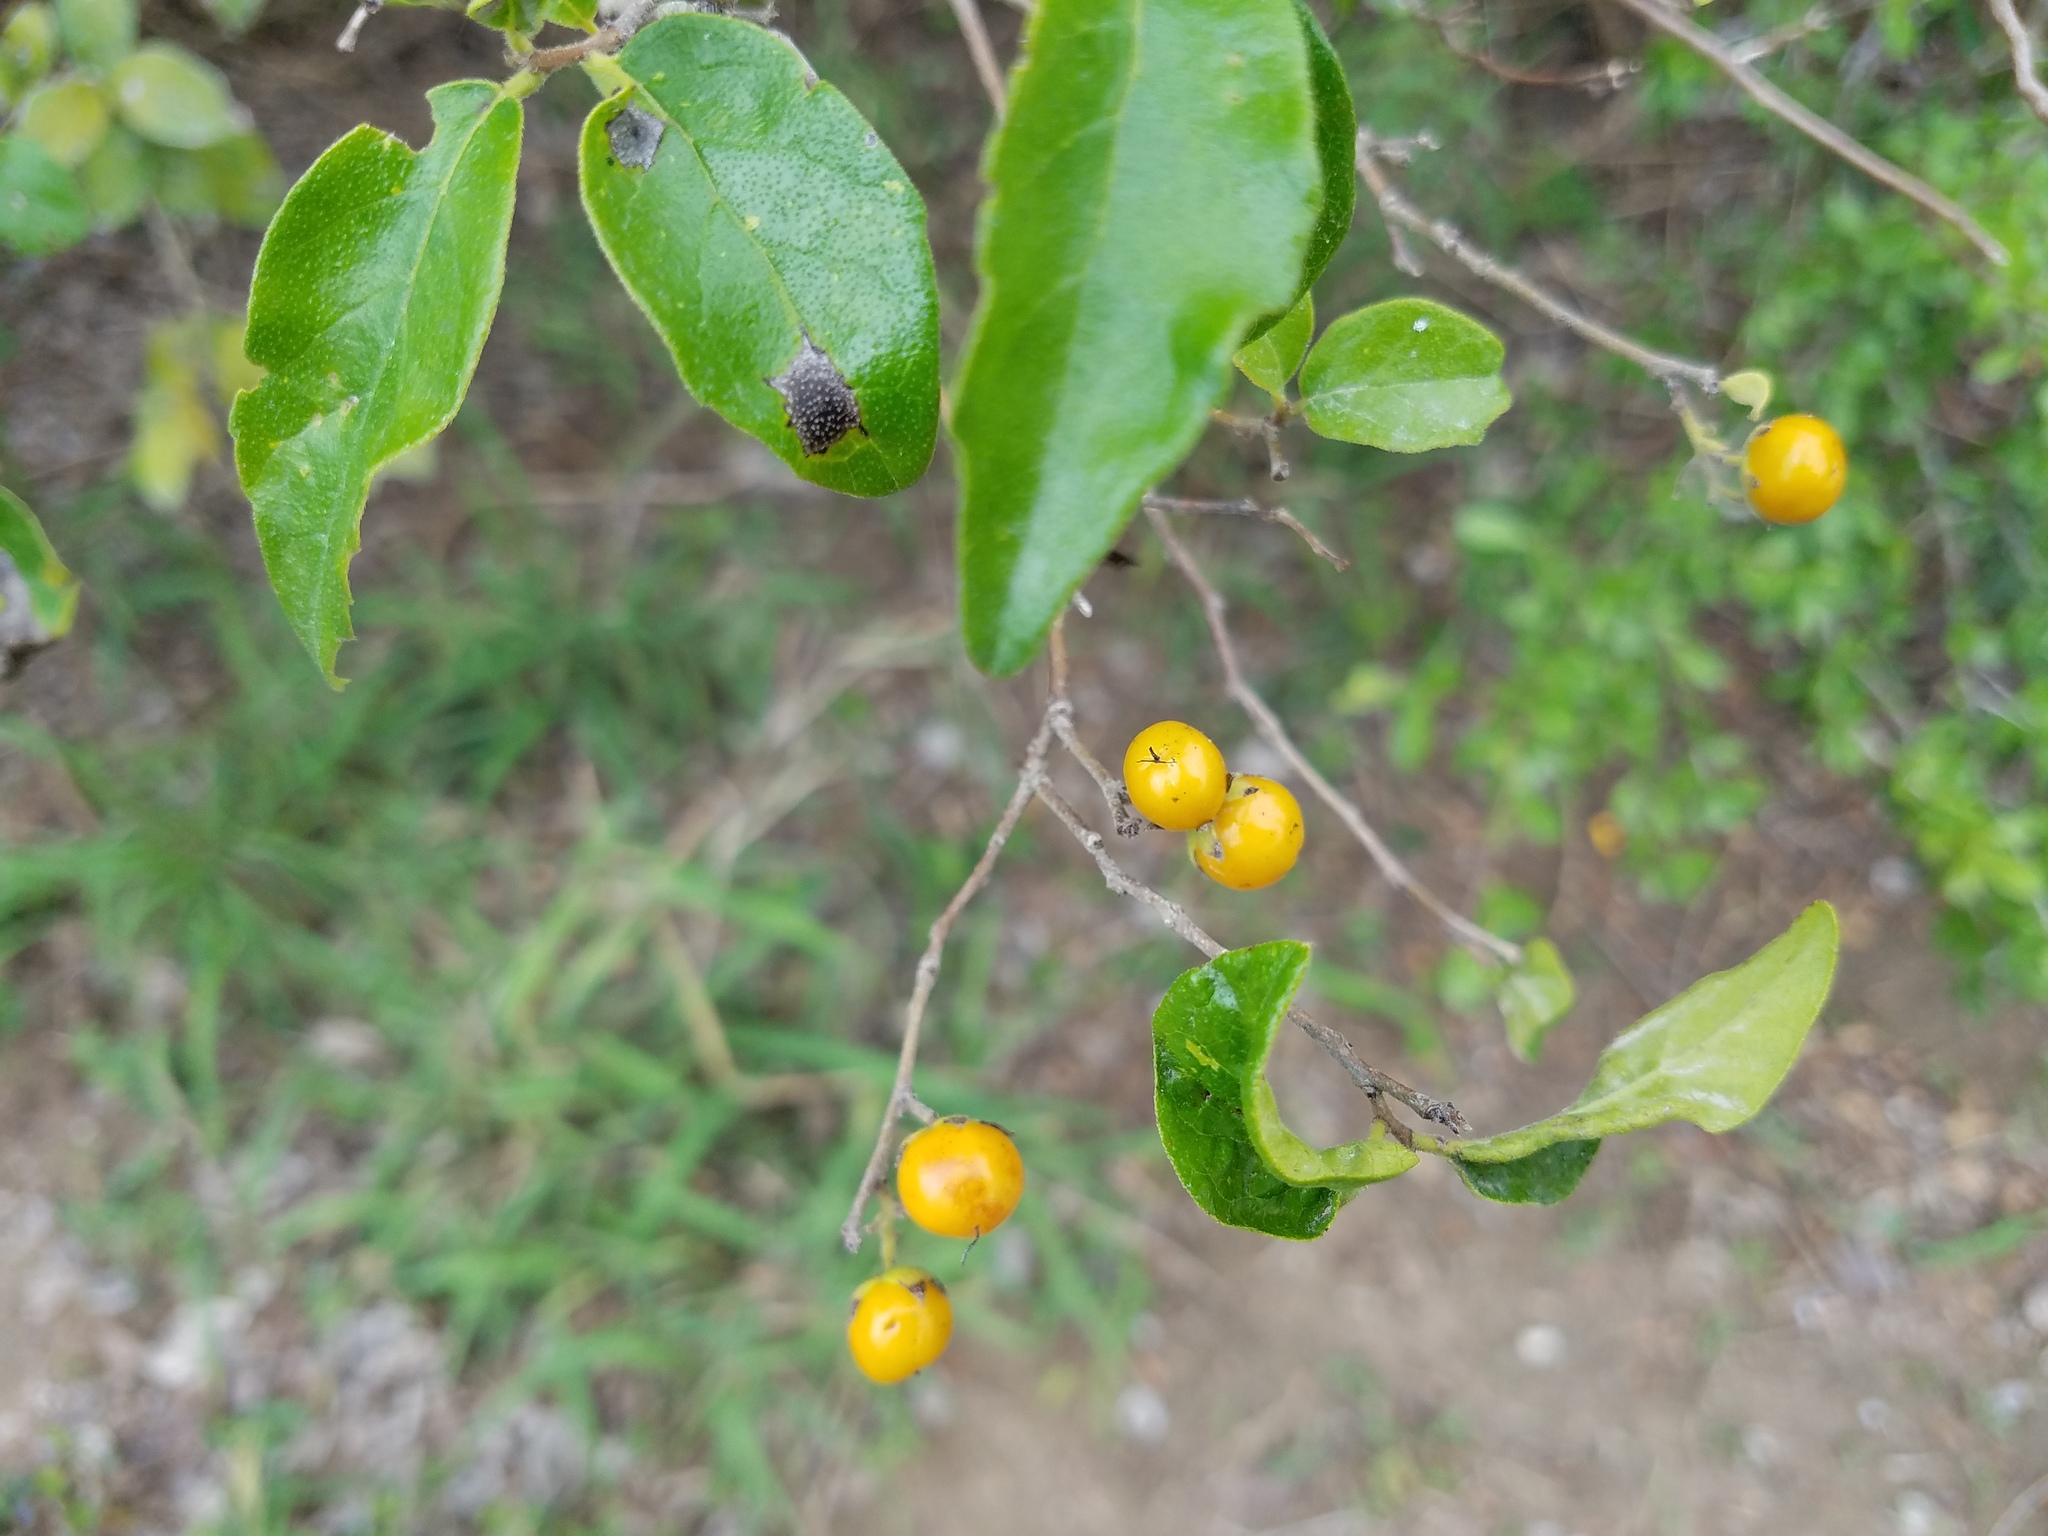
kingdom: Plantae
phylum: Tracheophyta
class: Magnoliopsida
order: Boraginales
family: Ehretiaceae
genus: Ehretia
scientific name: Ehretia anacua
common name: Sugarberry
